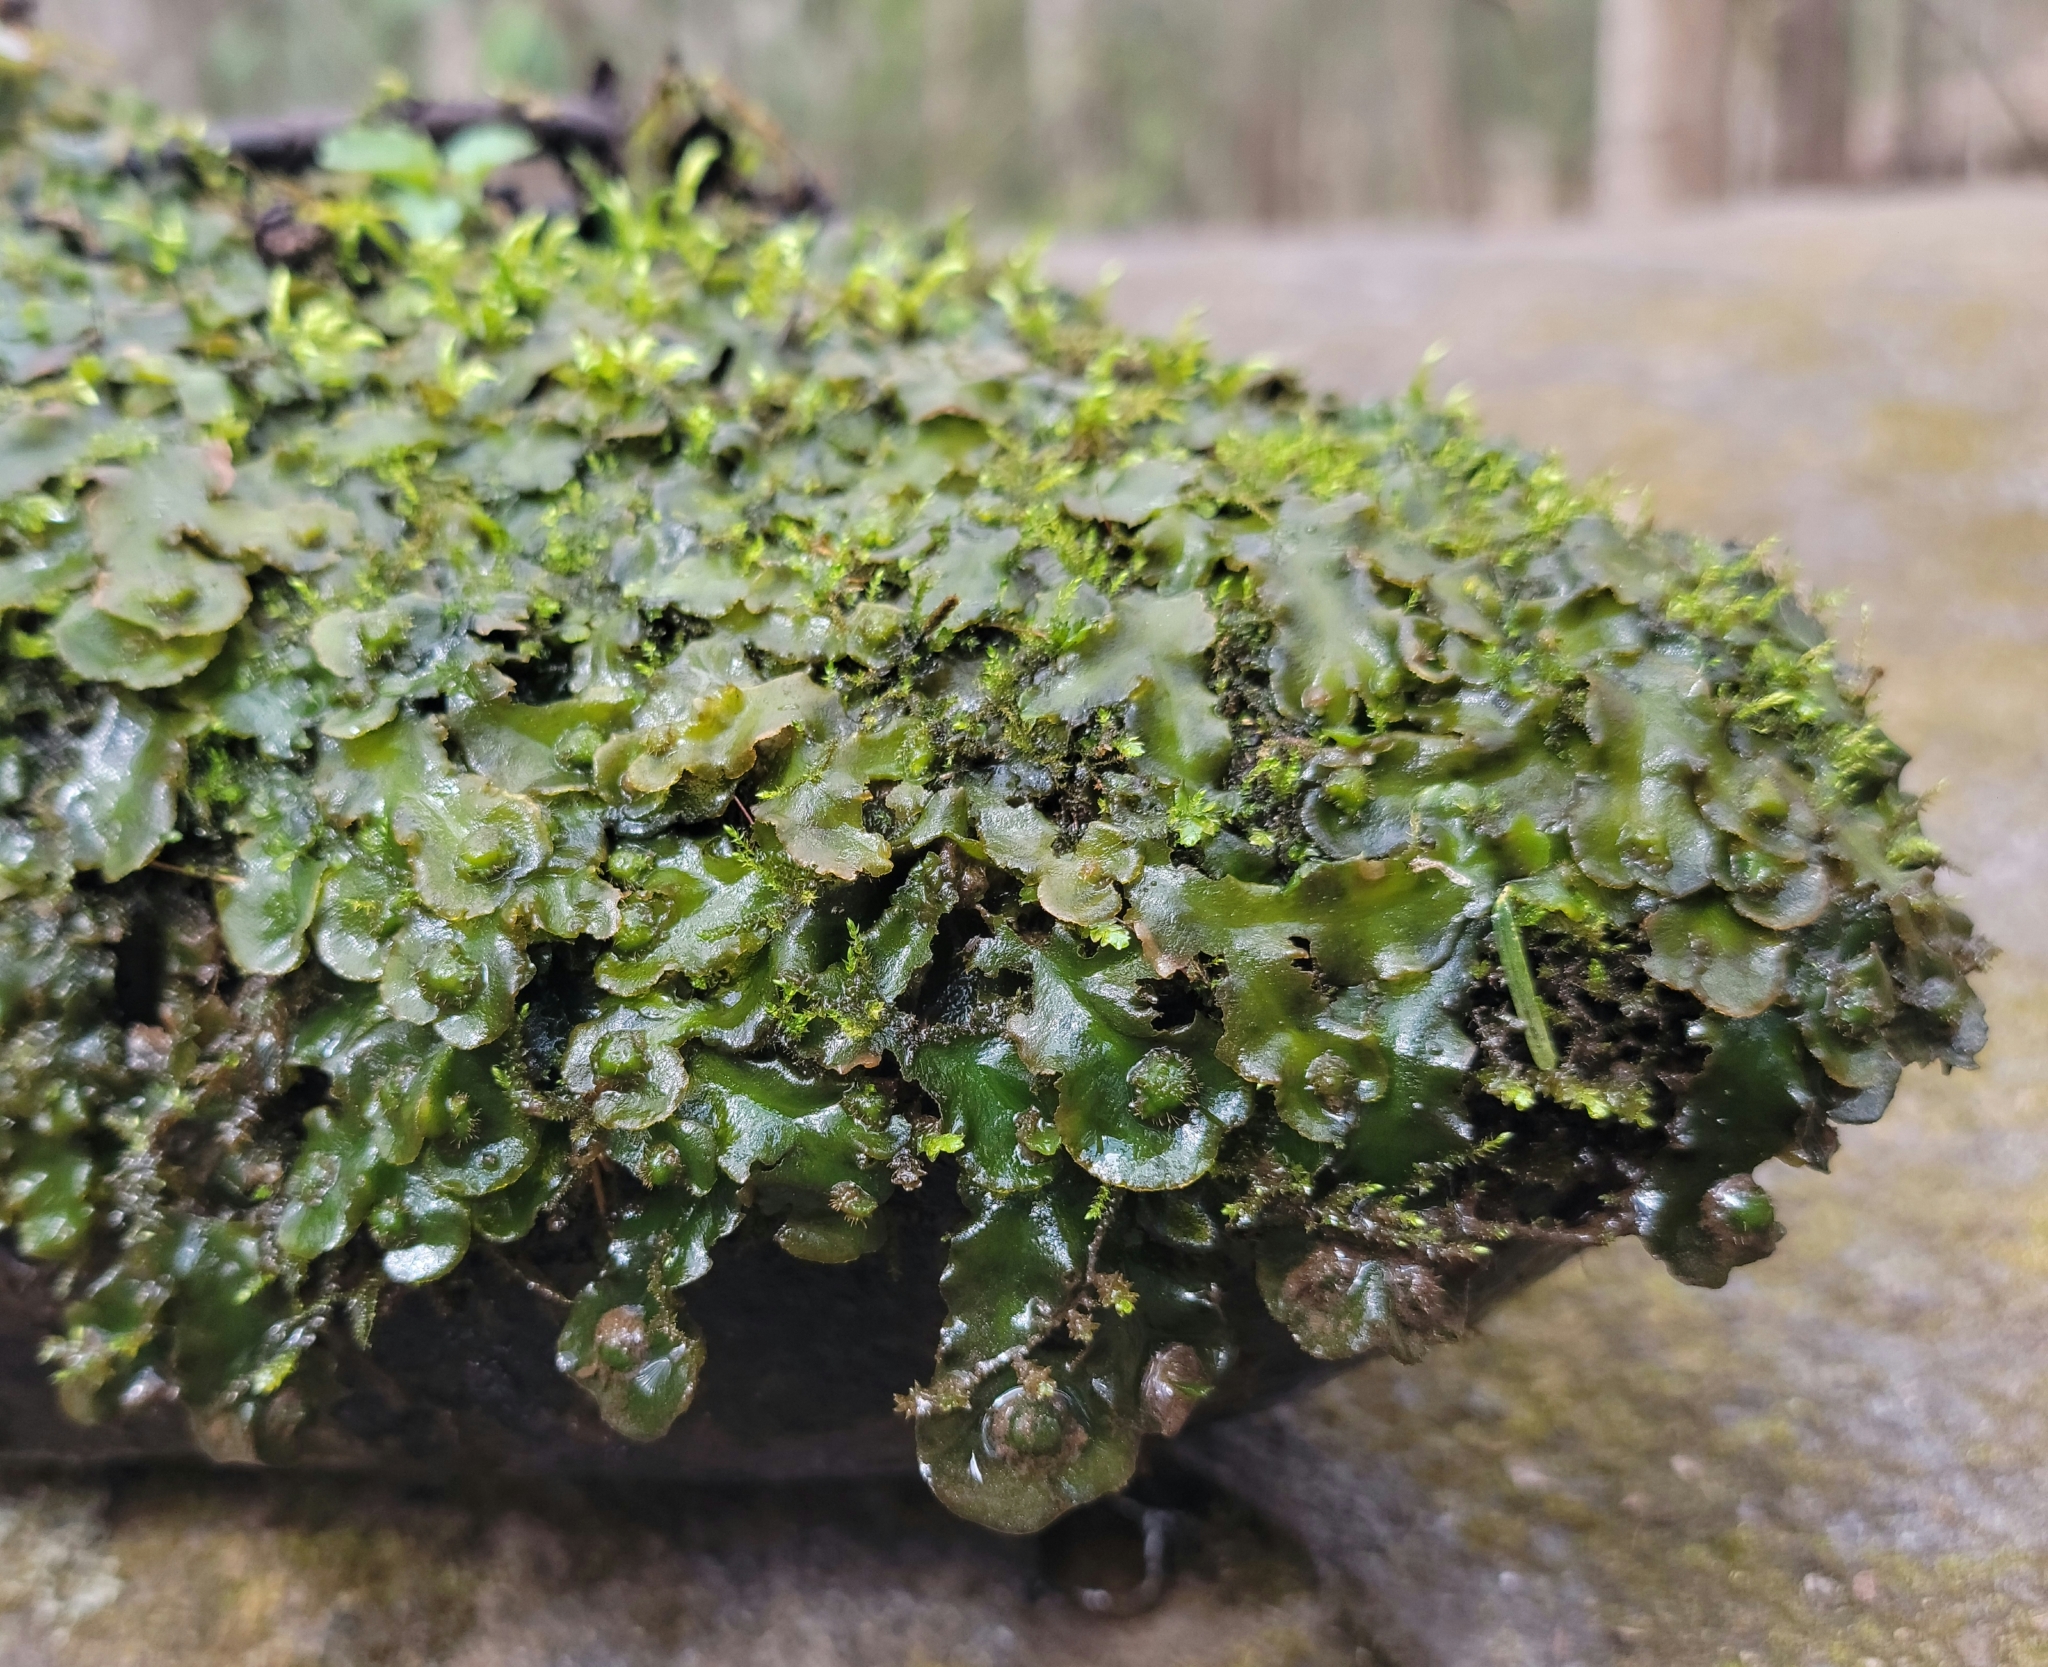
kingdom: Plantae
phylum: Marchantiophyta
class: Marchantiopsida
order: Marchantiales
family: Dumortieraceae
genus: Dumortiera
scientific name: Dumortiera hirsuta
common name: Dumortier's liverwort
